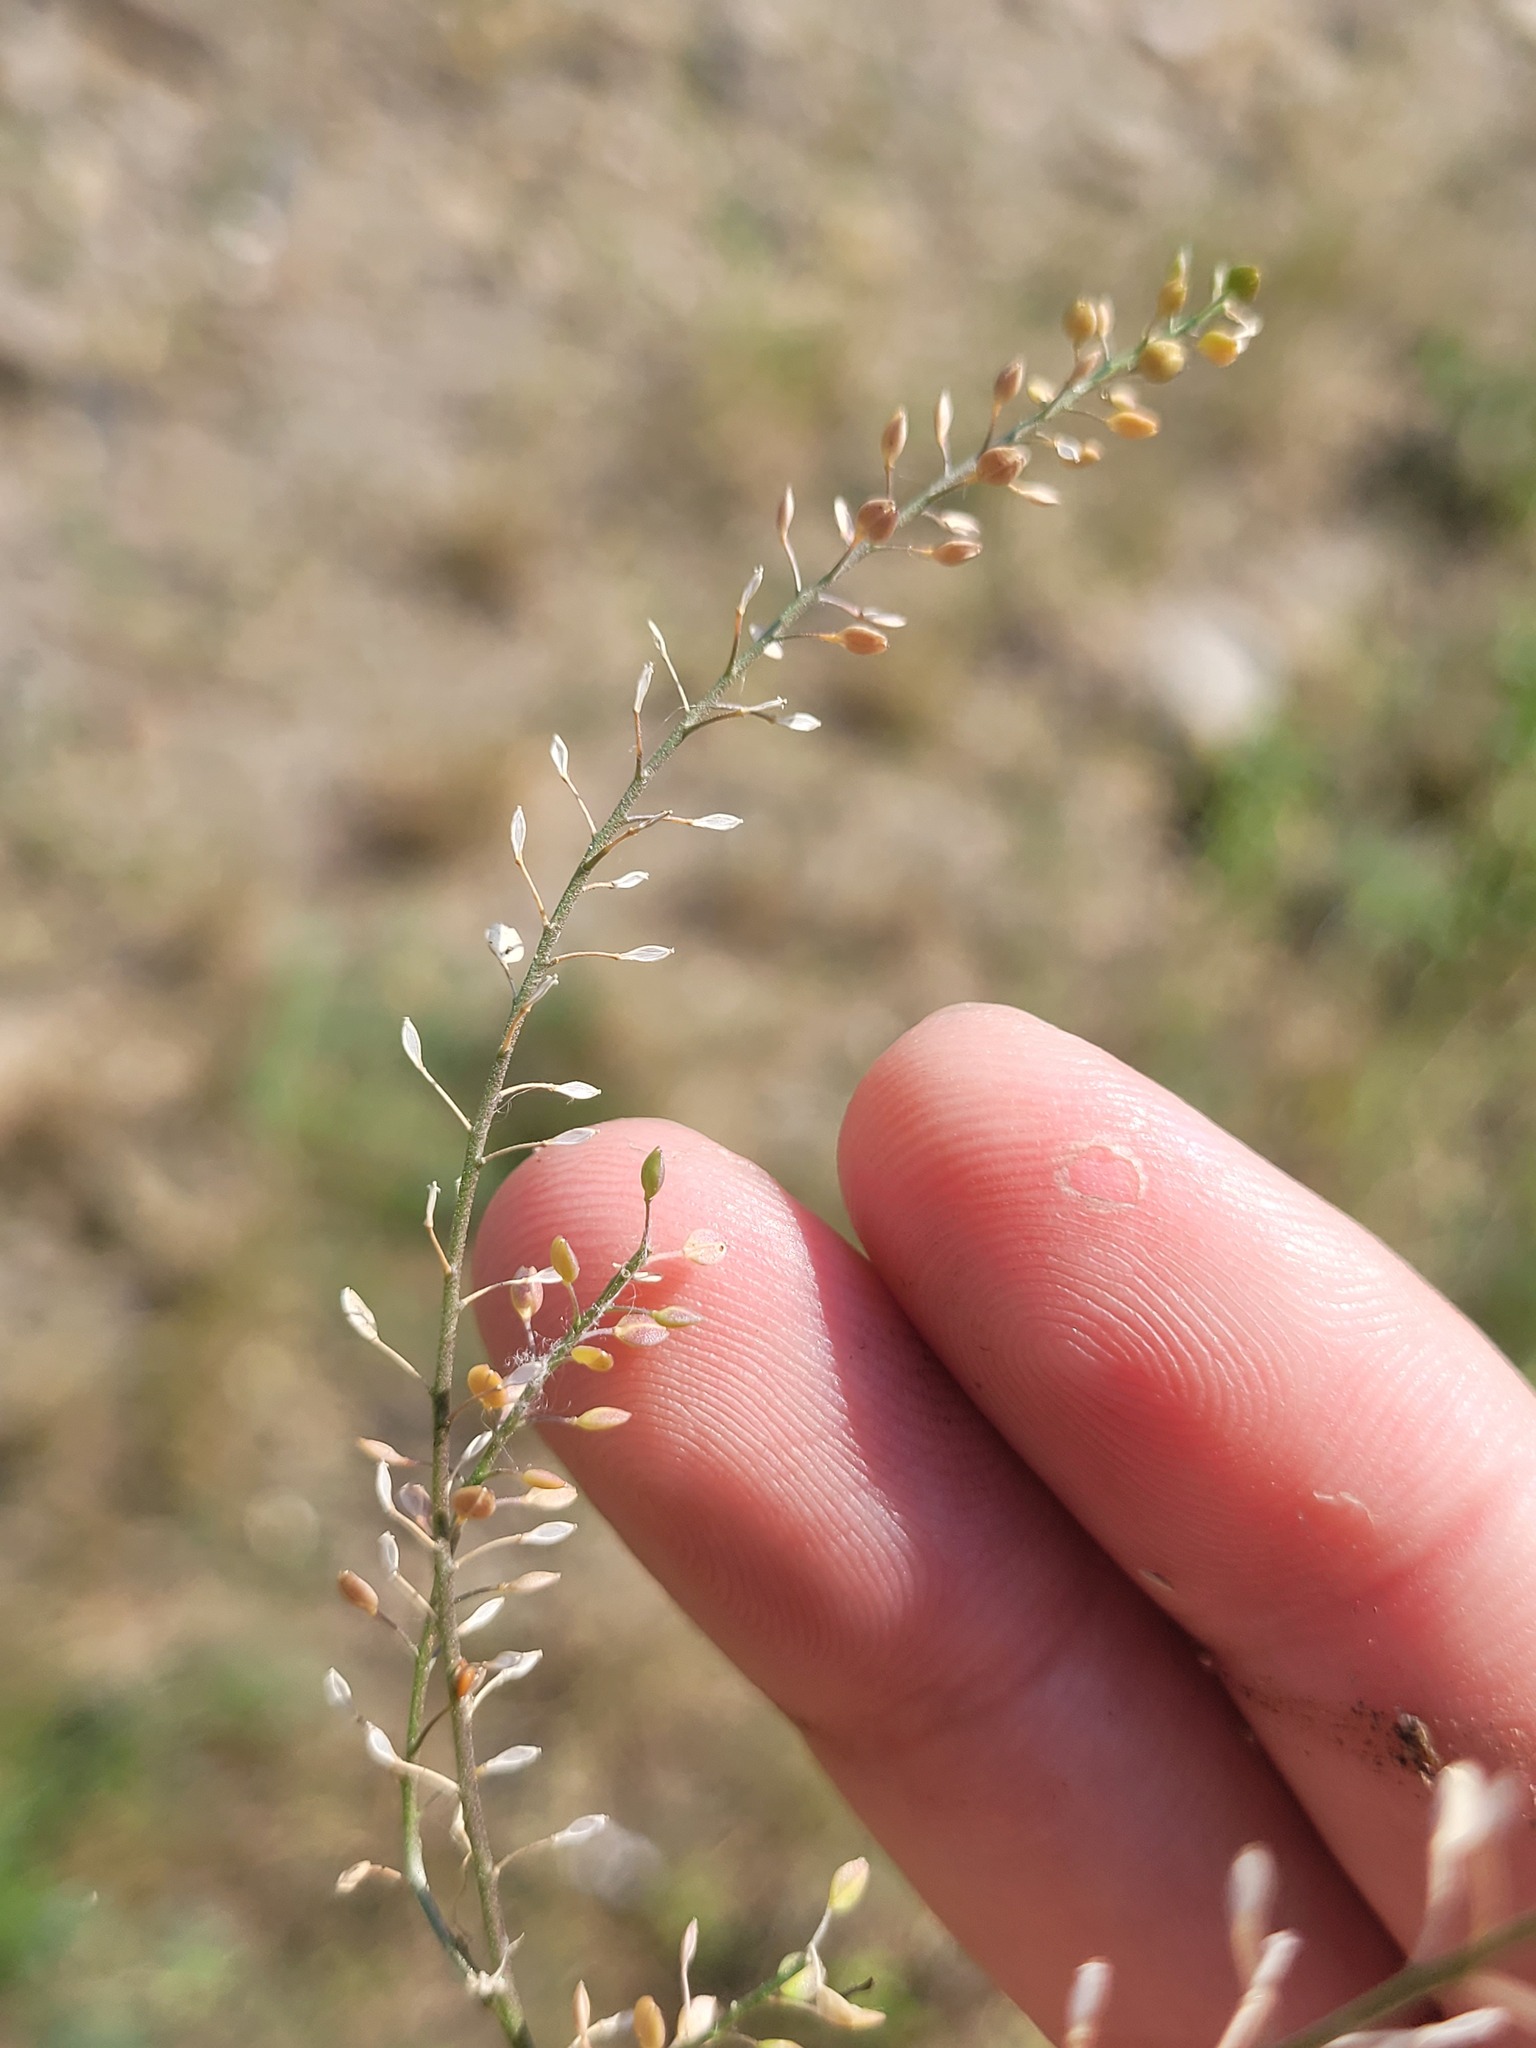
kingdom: Plantae
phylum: Tracheophyta
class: Magnoliopsida
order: Brassicales
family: Brassicaceae
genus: Lepidium
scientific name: Lepidium ruderale
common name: Narrow-leaved pepperwort
